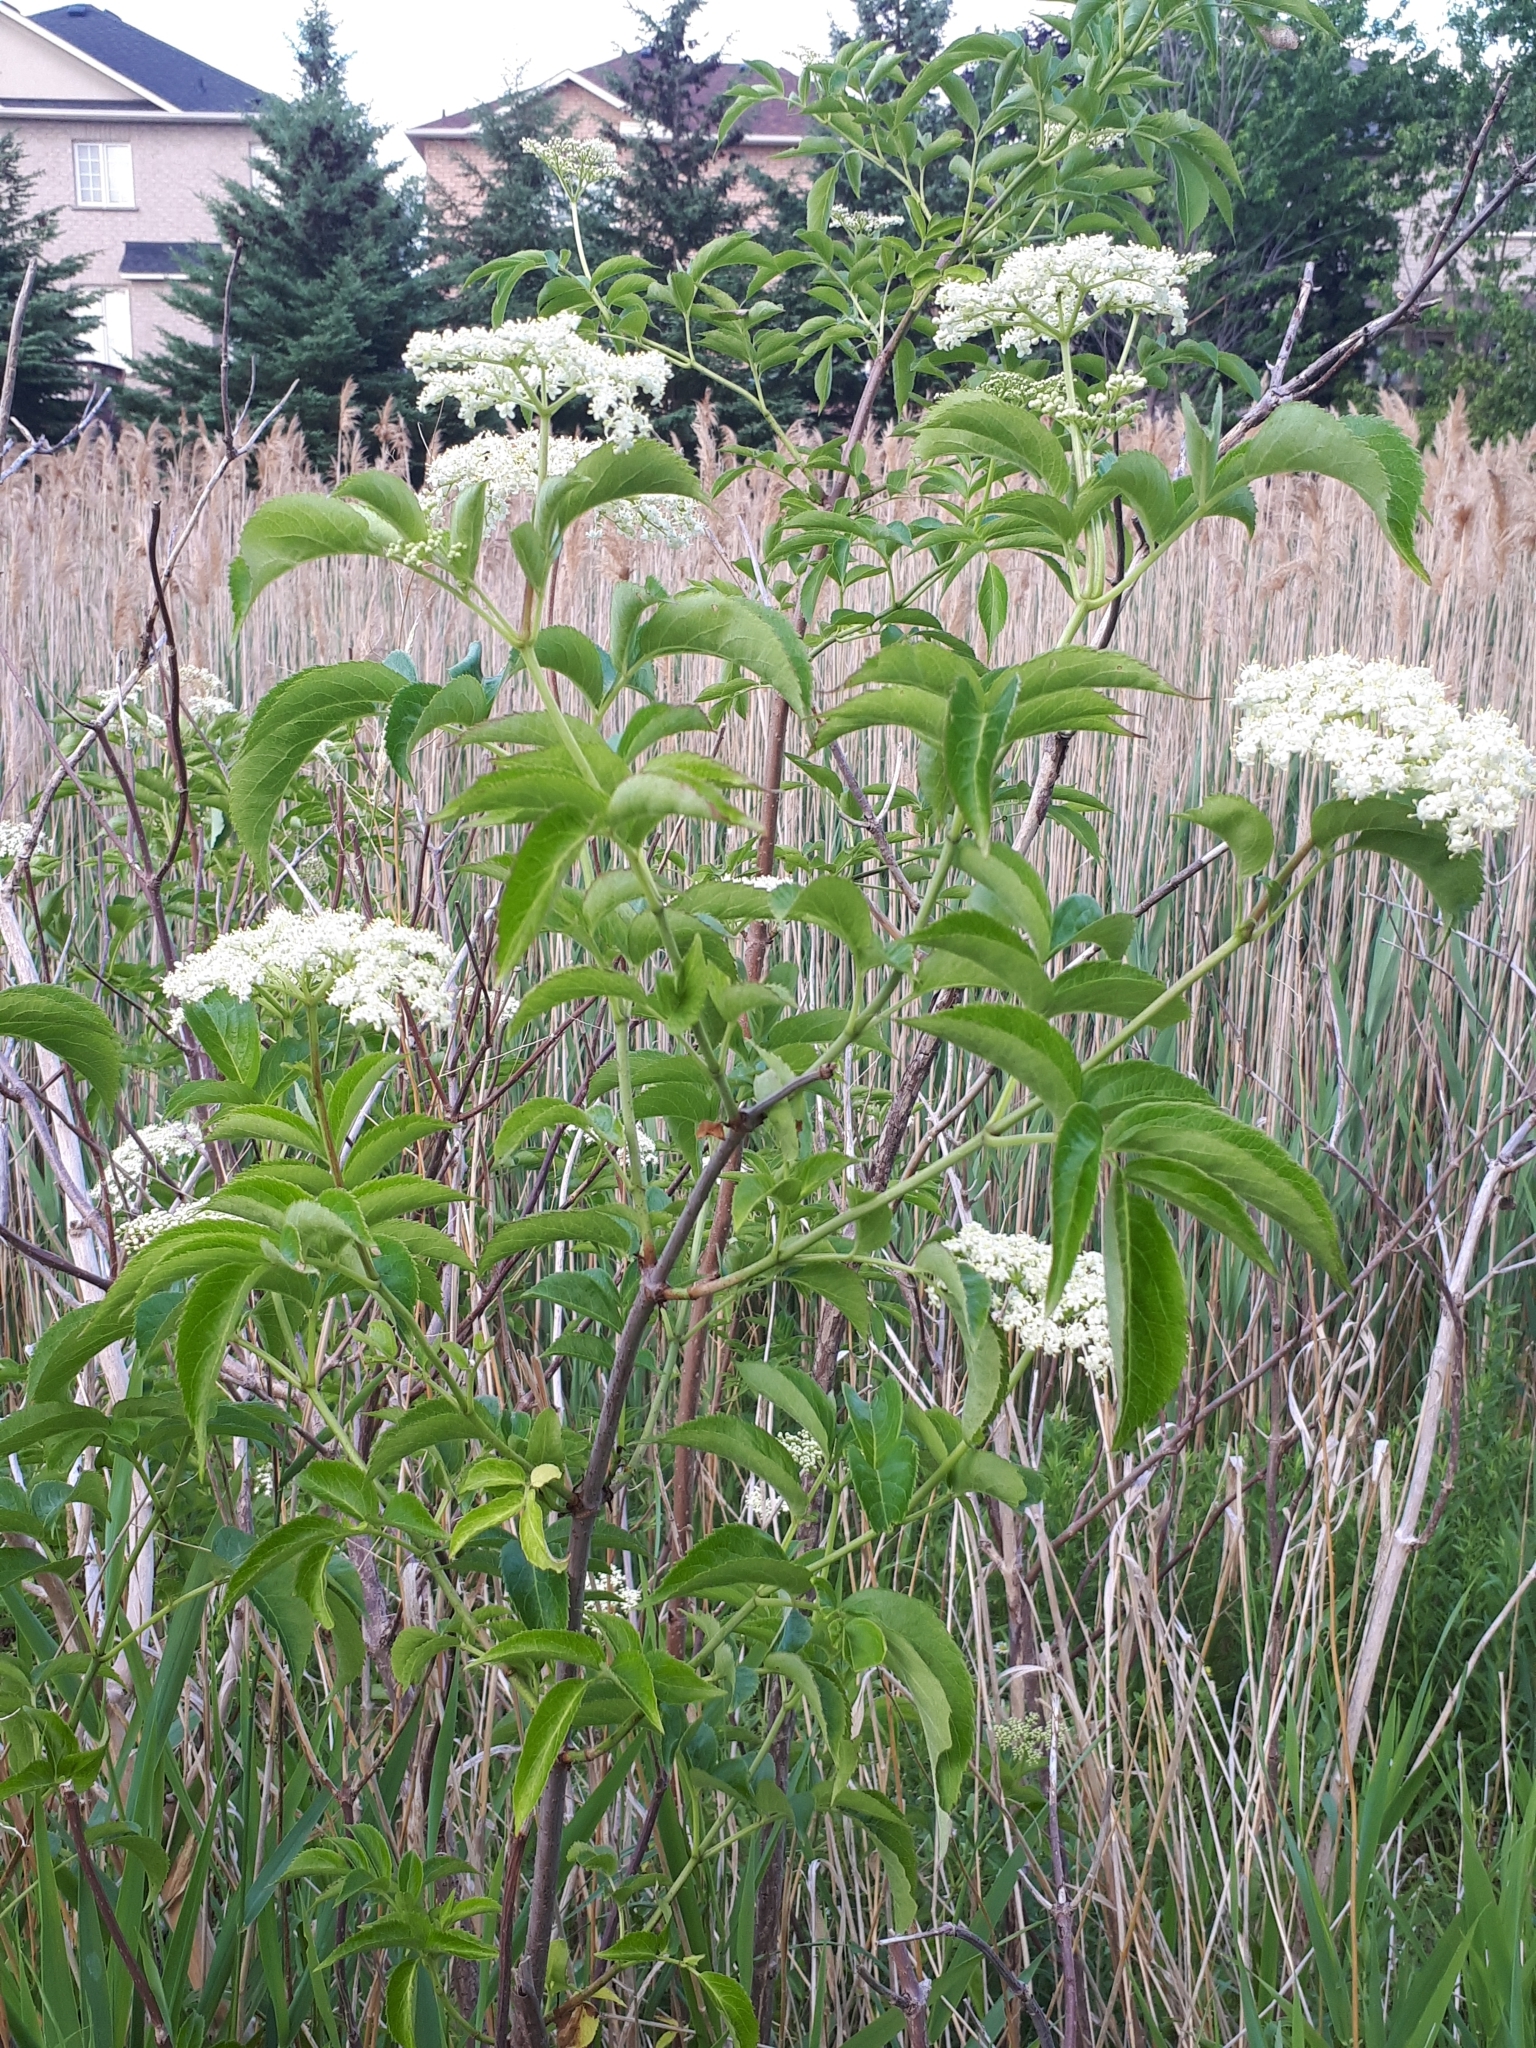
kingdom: Plantae
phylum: Tracheophyta
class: Magnoliopsida
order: Dipsacales
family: Viburnaceae
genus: Sambucus
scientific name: Sambucus canadensis
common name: American elder
